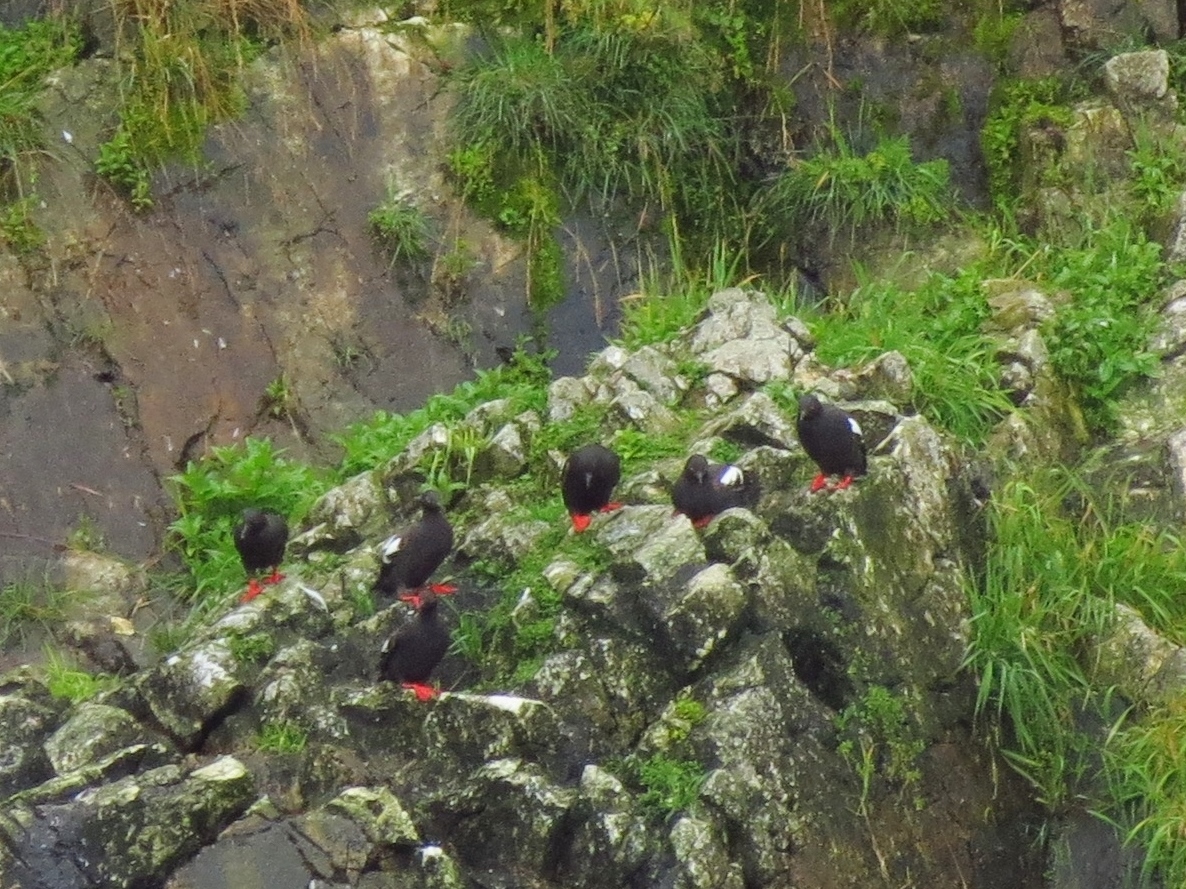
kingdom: Animalia
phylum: Chordata
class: Aves
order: Charadriiformes
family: Alcidae
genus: Cepphus
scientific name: Cepphus columba
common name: Pigeon guillemot
